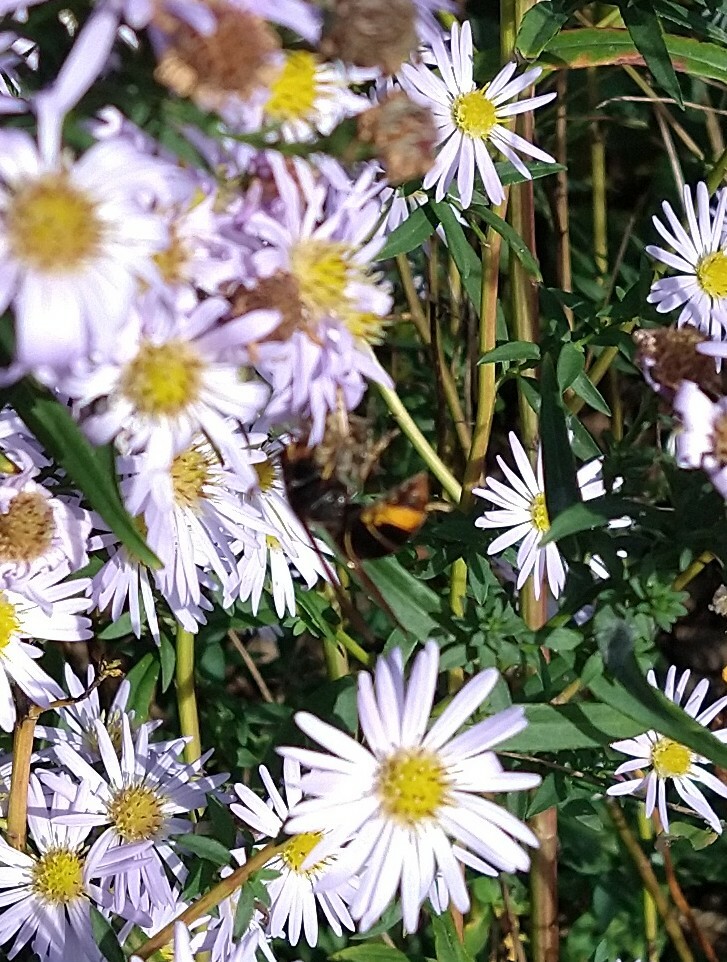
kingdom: Animalia
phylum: Arthropoda
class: Insecta
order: Hymenoptera
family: Vespidae
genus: Vespa
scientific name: Vespa velutina
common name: Asian hornet
